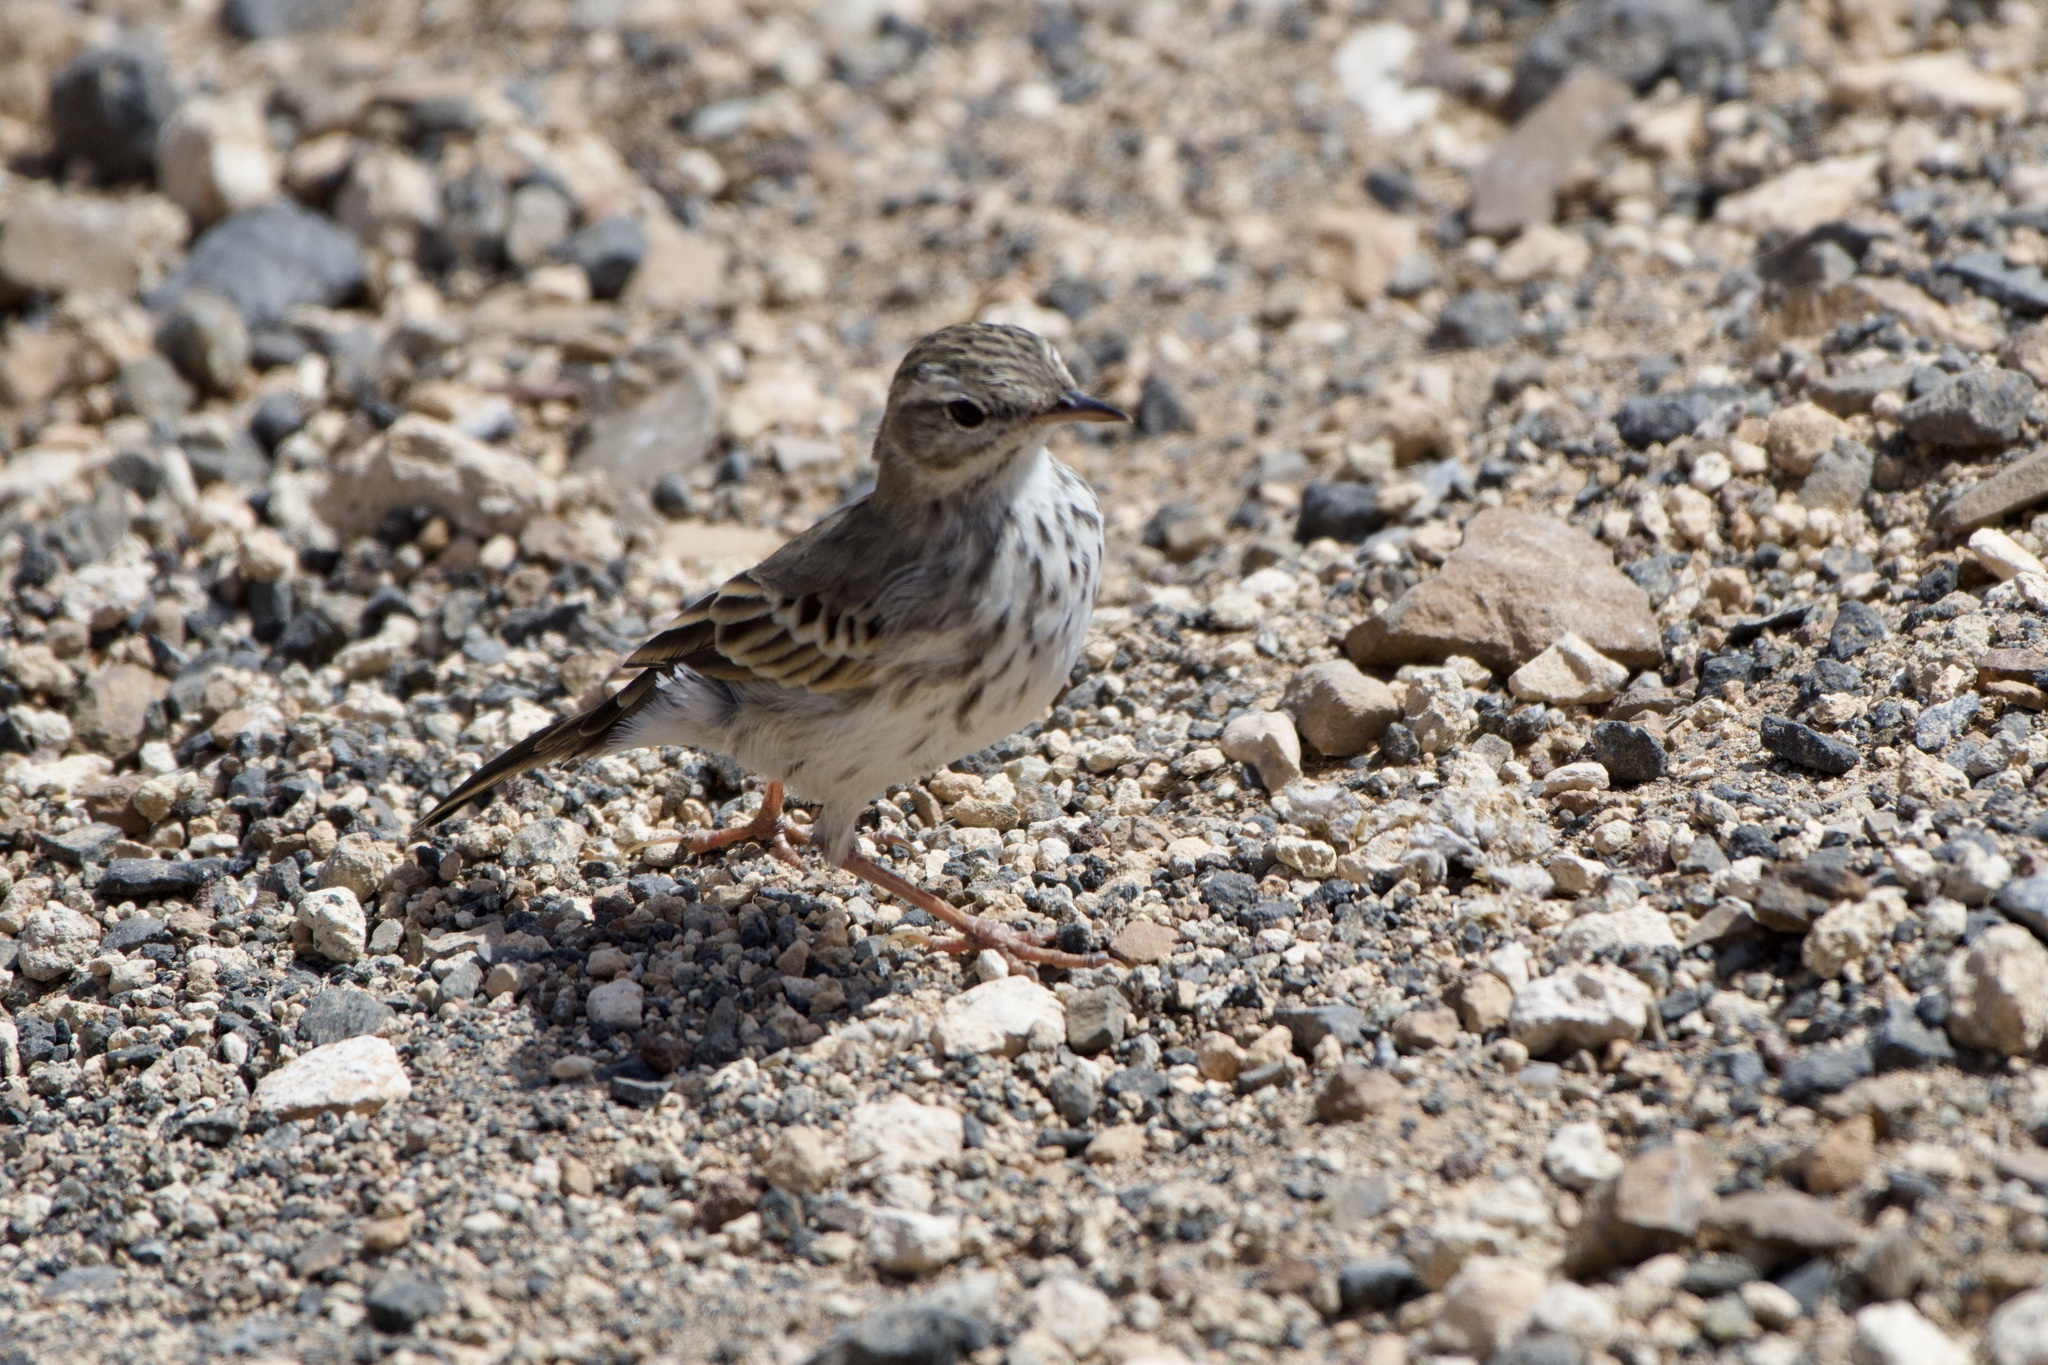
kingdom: Animalia
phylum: Chordata
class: Aves
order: Passeriformes
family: Motacillidae
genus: Anthus
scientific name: Anthus berthelotii
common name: Berthelot's pipit
